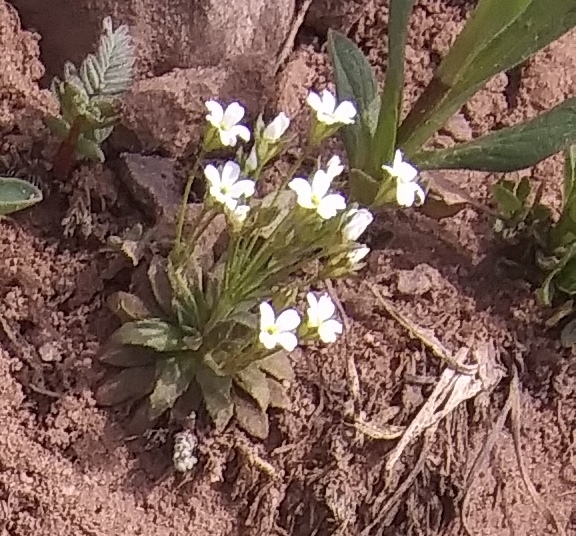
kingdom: Plantae
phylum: Tracheophyta
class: Magnoliopsida
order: Ericales
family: Primulaceae
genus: Androsace
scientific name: Androsace septentrionalis
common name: Hairy northern fairy-candelabra
